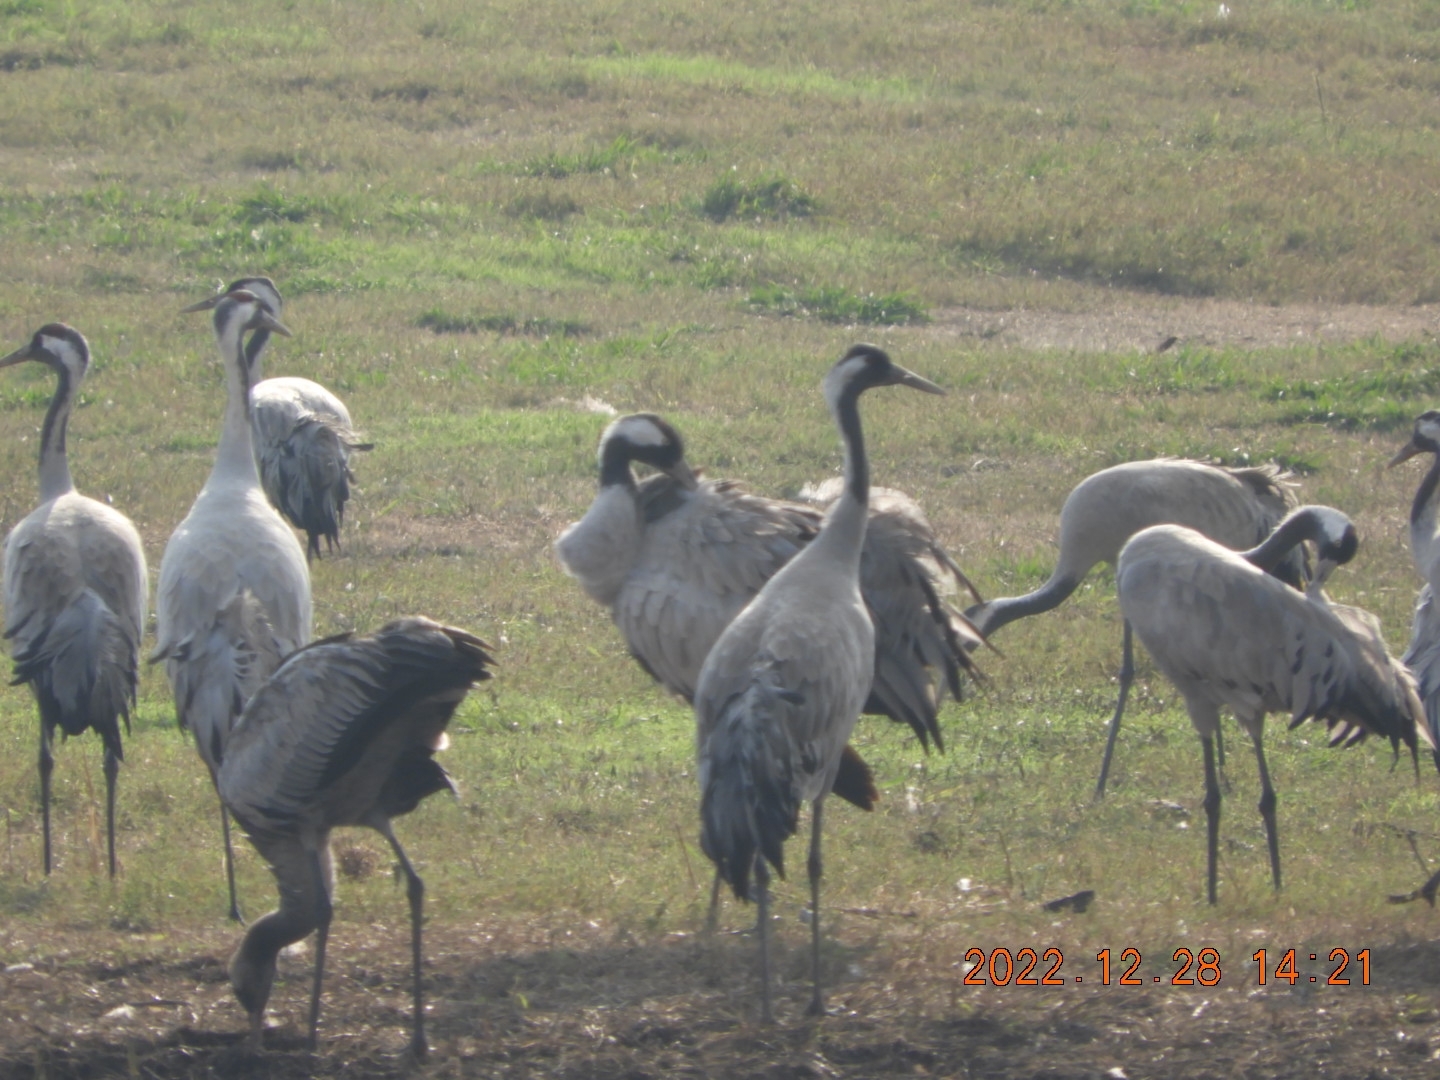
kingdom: Animalia
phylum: Chordata
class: Aves
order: Gruiformes
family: Gruidae
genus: Grus
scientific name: Grus grus
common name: Common crane
